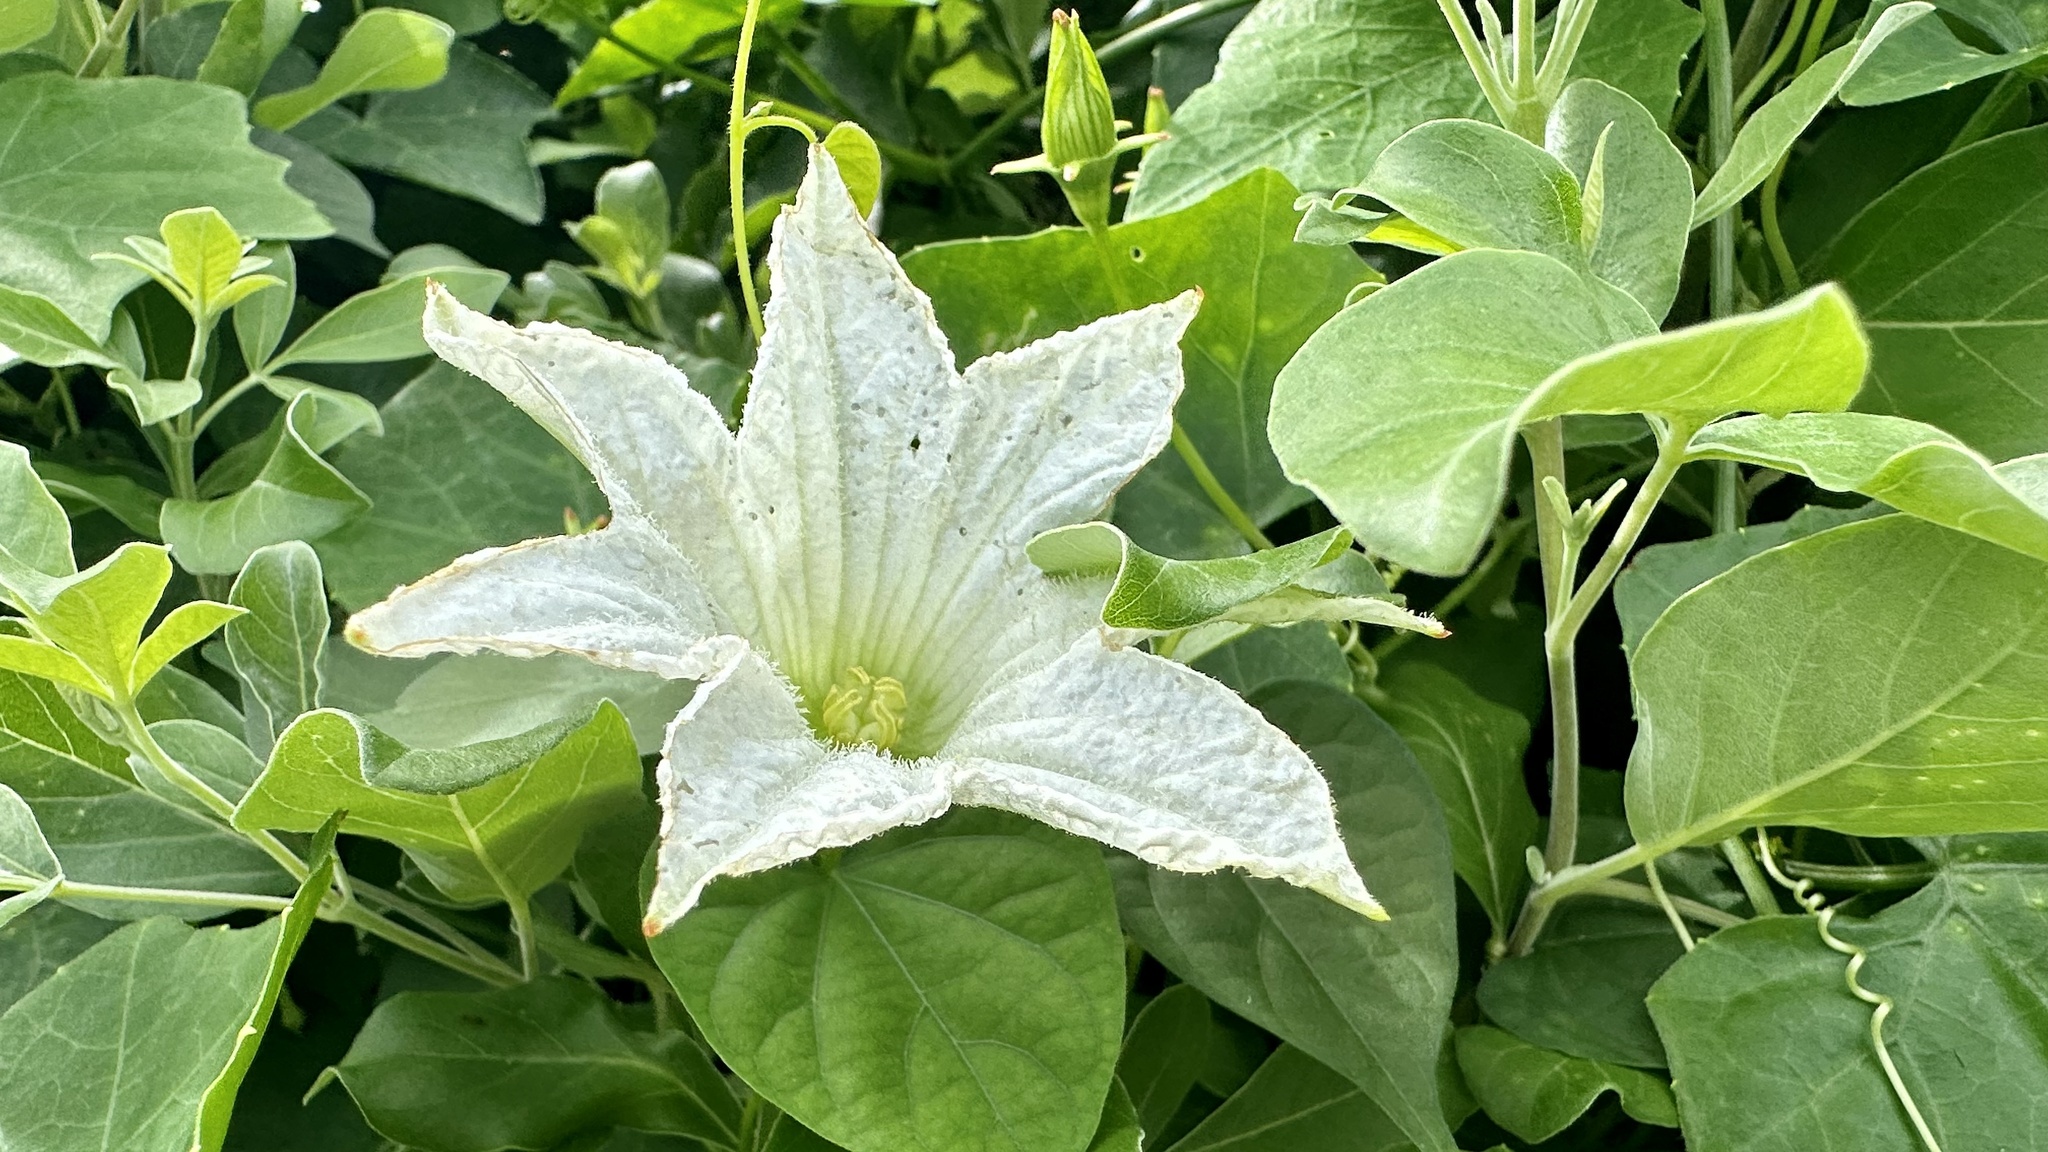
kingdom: Plantae
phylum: Tracheophyta
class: Magnoliopsida
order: Cucurbitales
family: Cucurbitaceae
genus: Coccinia
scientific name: Coccinia grandis
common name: Ivy gourd
